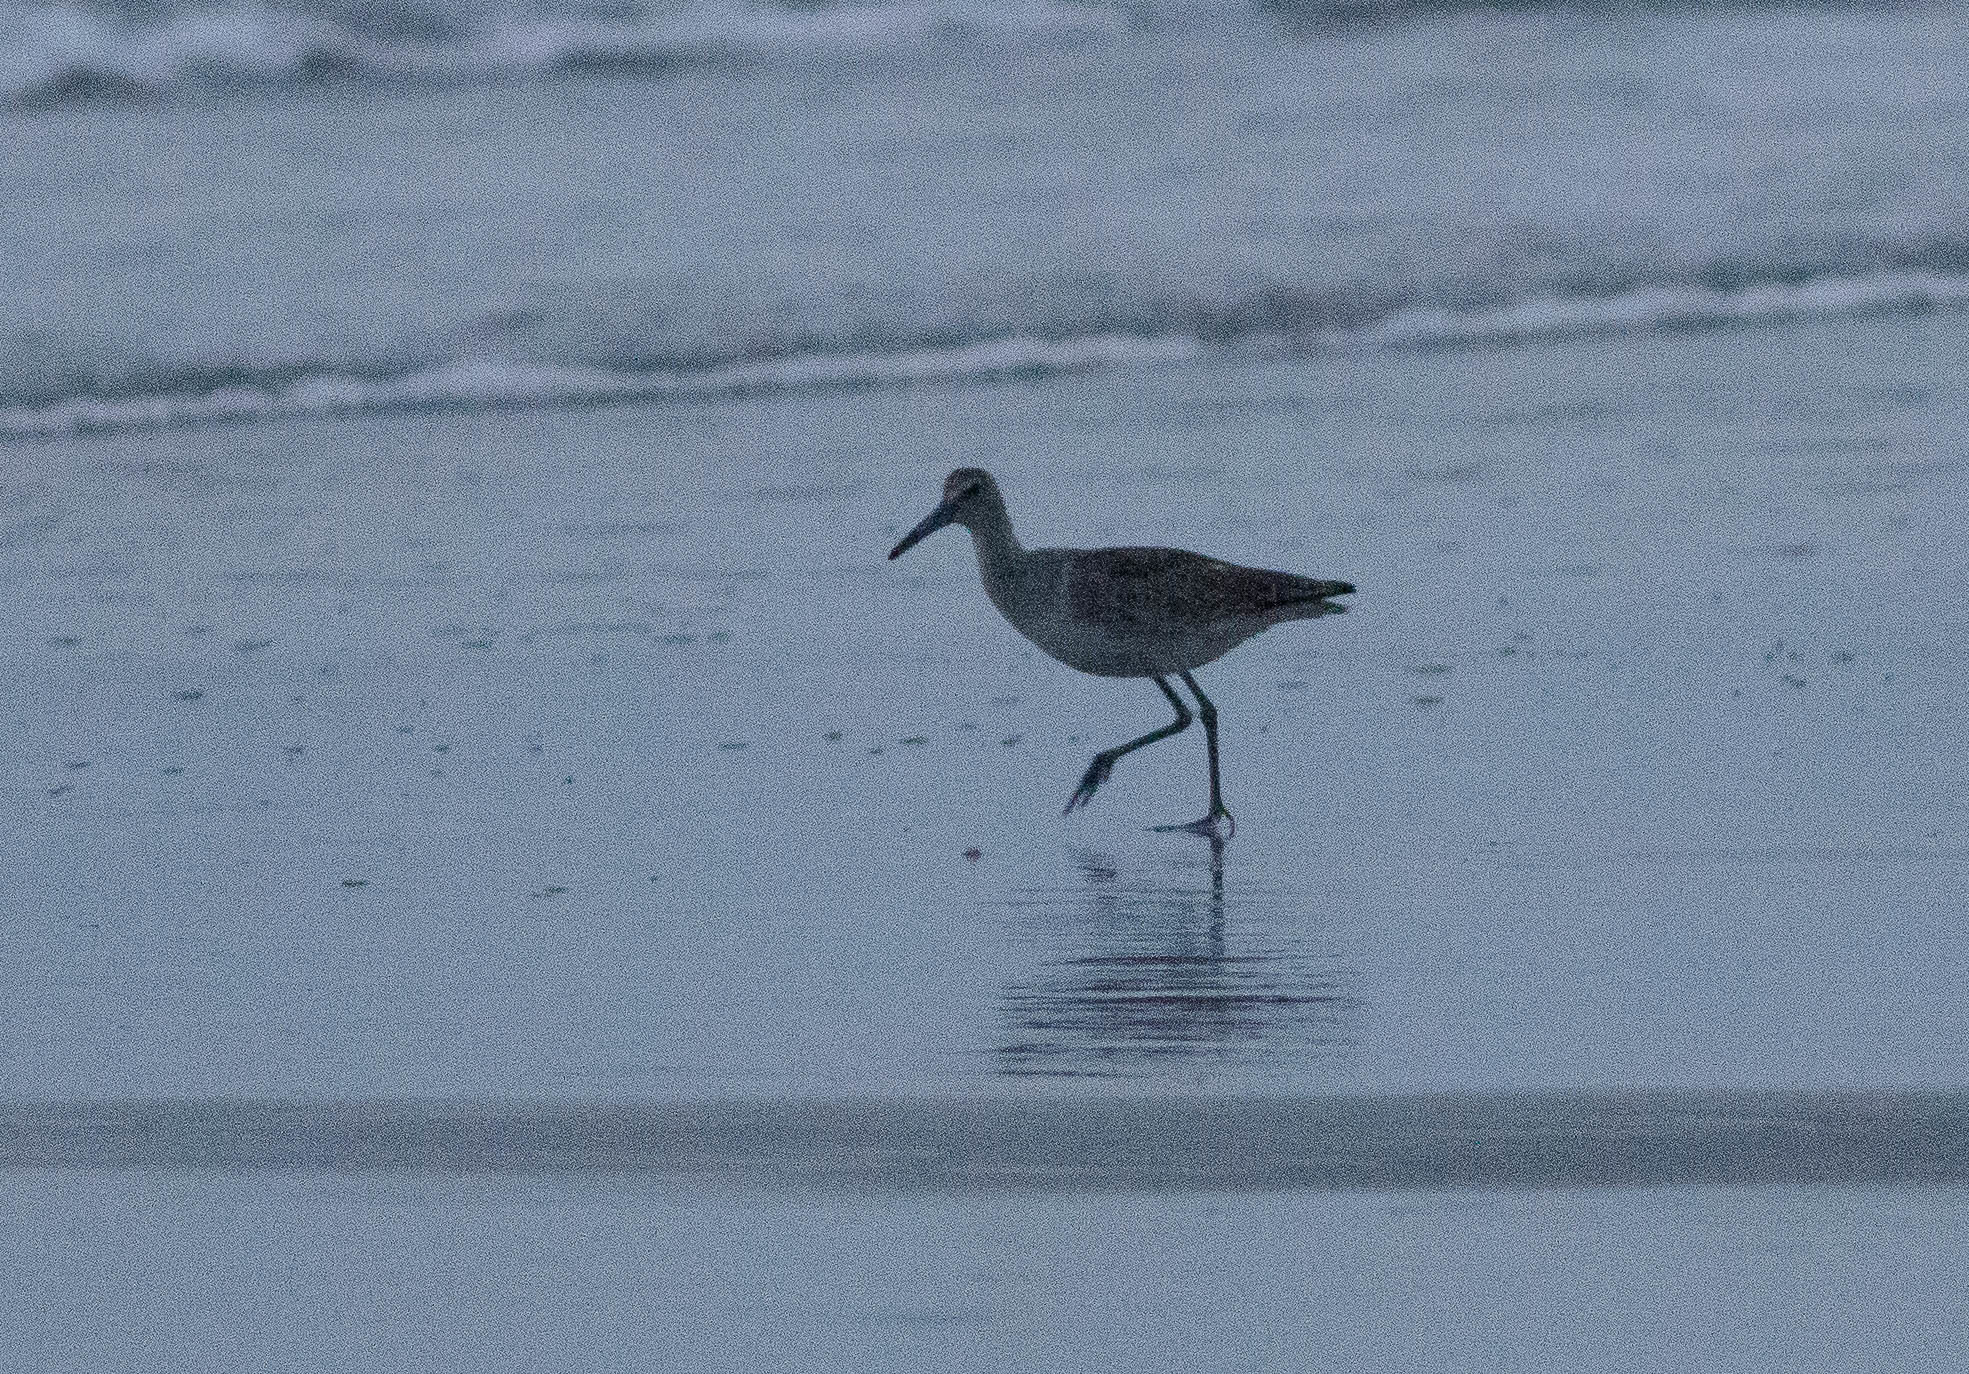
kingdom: Animalia
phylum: Chordata
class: Aves
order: Charadriiformes
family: Scolopacidae
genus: Tringa
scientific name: Tringa semipalmata
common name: Willet
